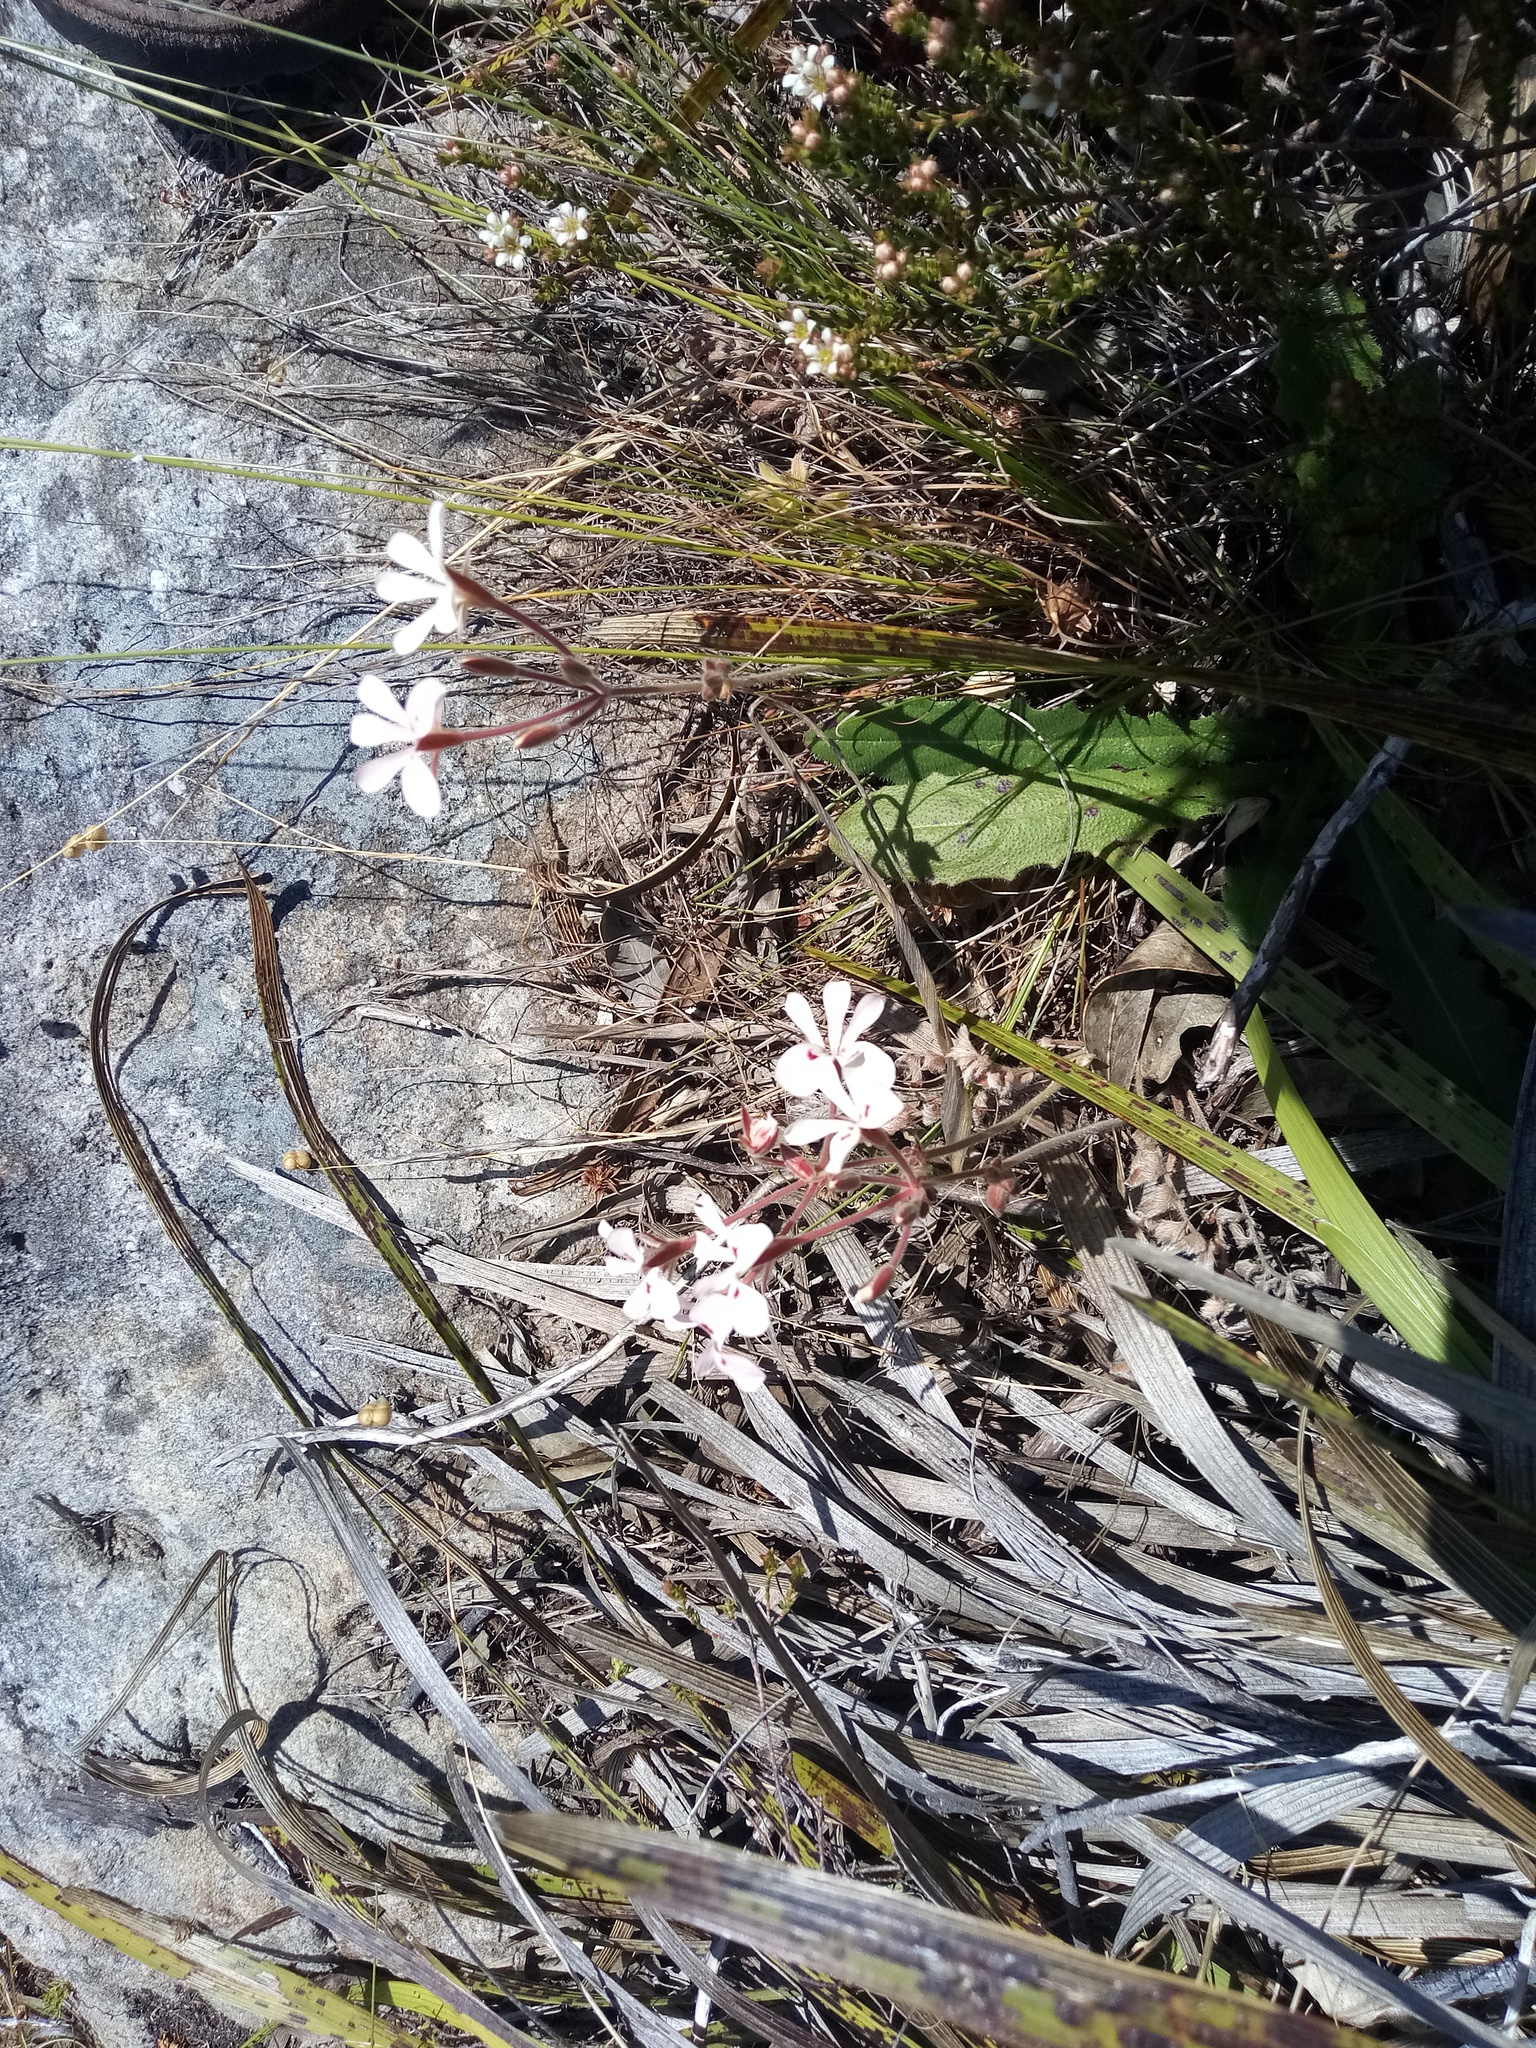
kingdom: Plantae
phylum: Tracheophyta
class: Magnoliopsida
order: Geraniales
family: Geraniaceae
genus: Pelargonium
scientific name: Pelargonium pinnatum
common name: Pinnated pelargonium
